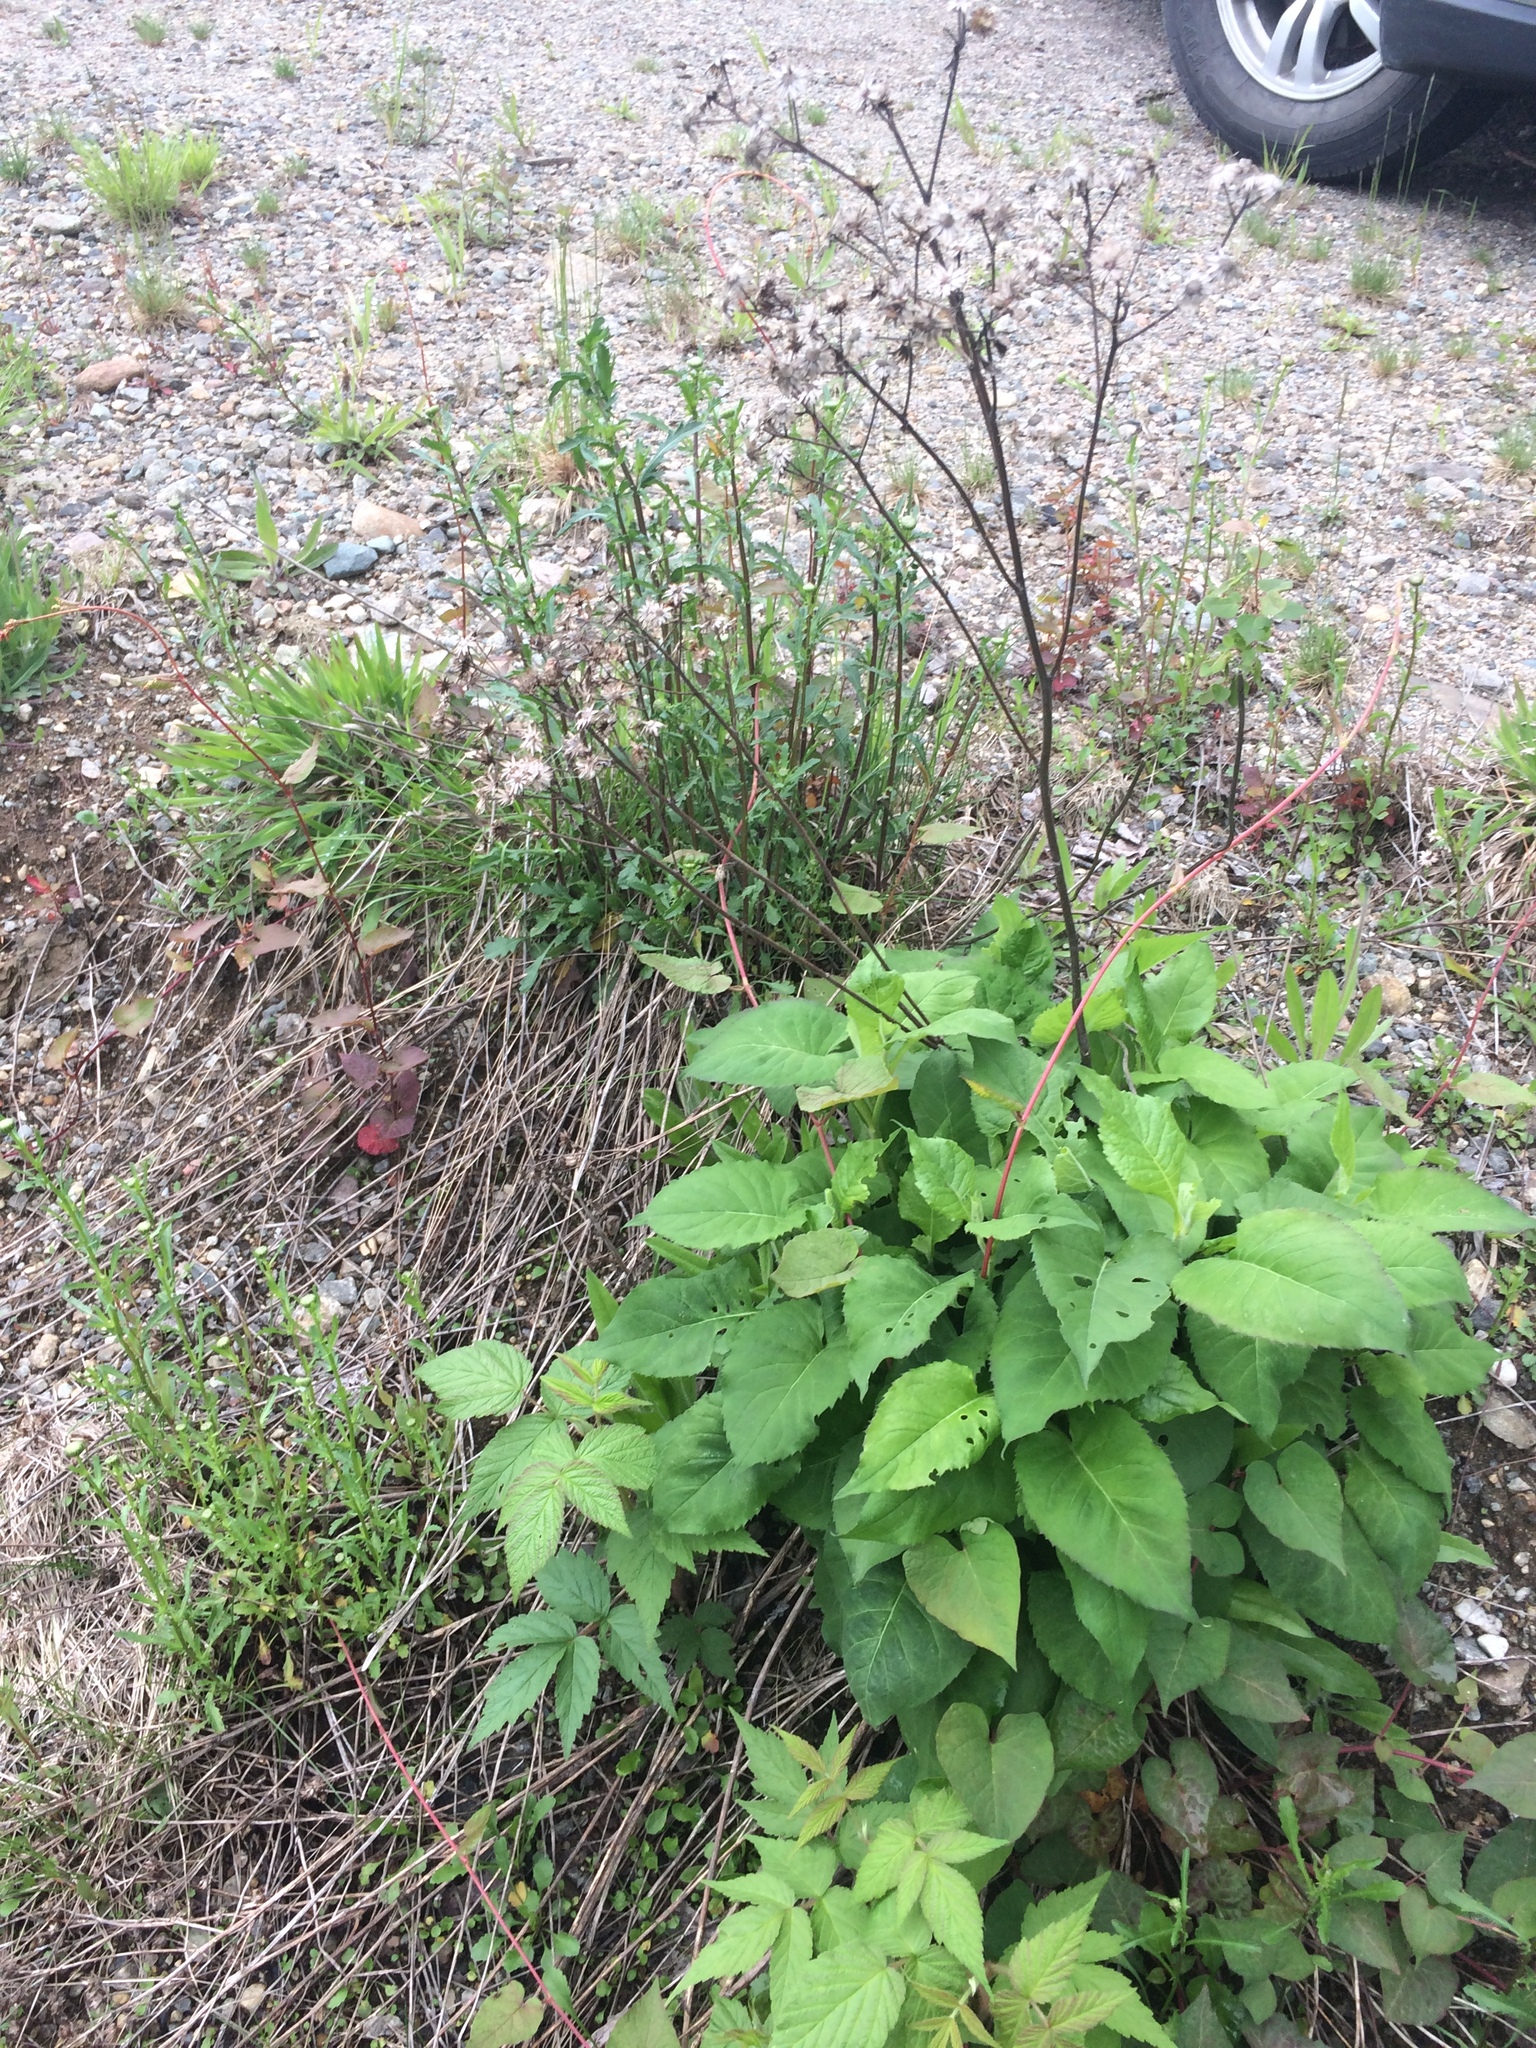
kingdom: Plantae
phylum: Tracheophyta
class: Magnoliopsida
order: Asterales
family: Asteraceae
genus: Eurybia
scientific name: Eurybia macrophylla
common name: Big-leaved aster
